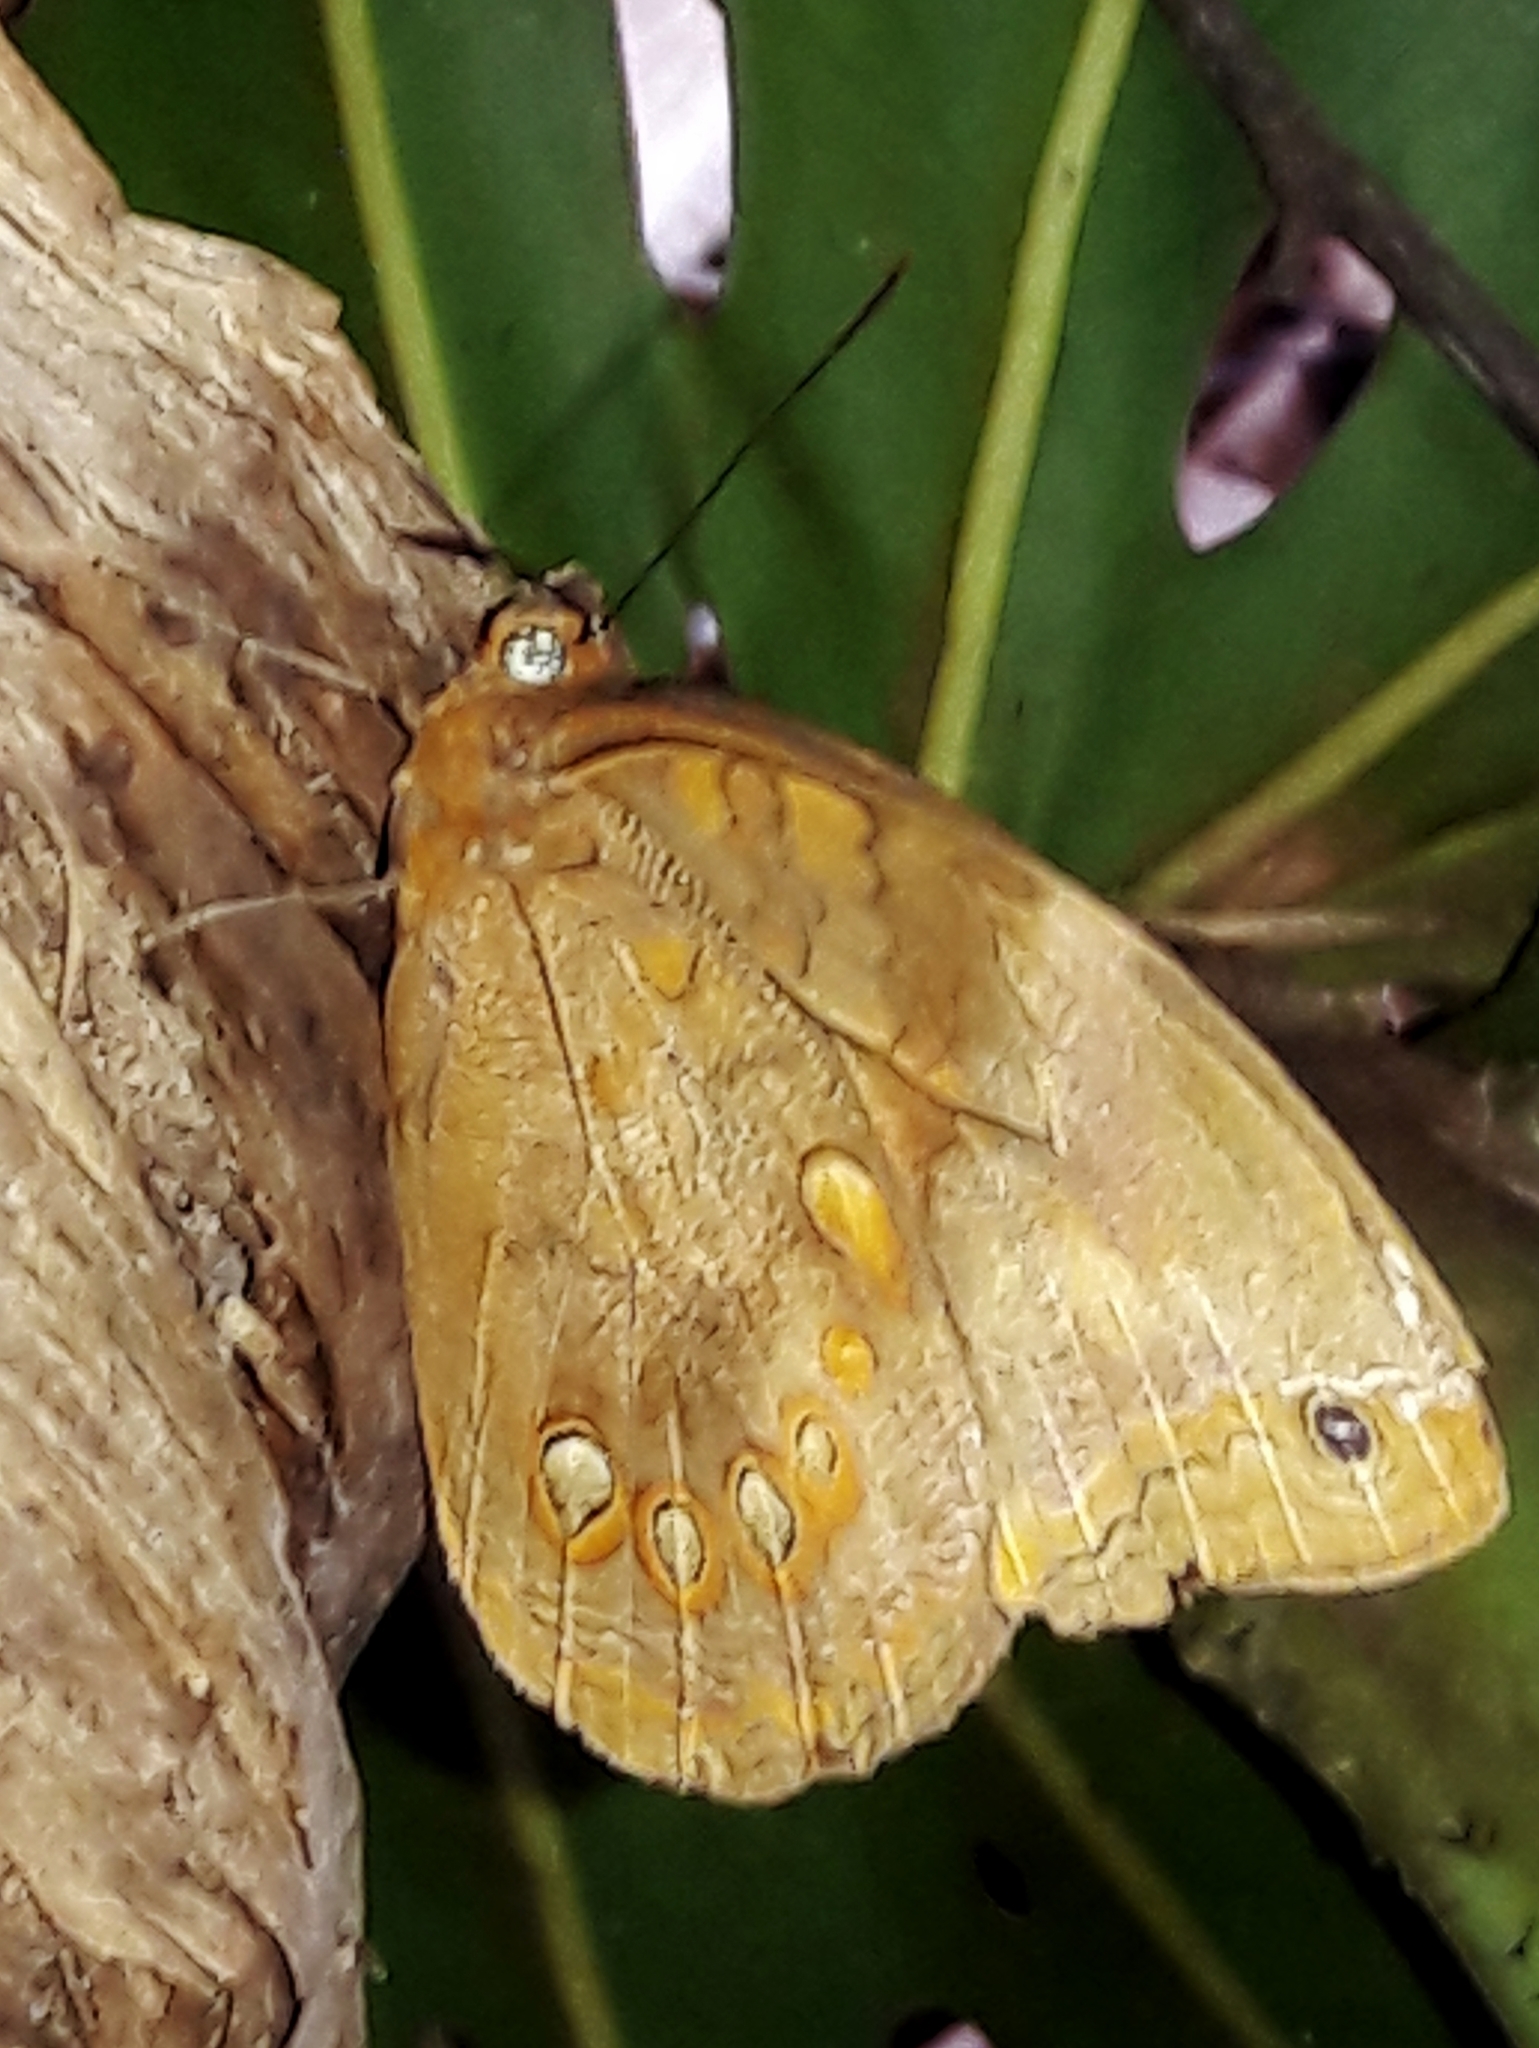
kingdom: Animalia
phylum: Arthropoda
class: Insecta
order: Lepidoptera
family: Nymphalidae
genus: Catoblepia
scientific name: Catoblepia berecynthia
